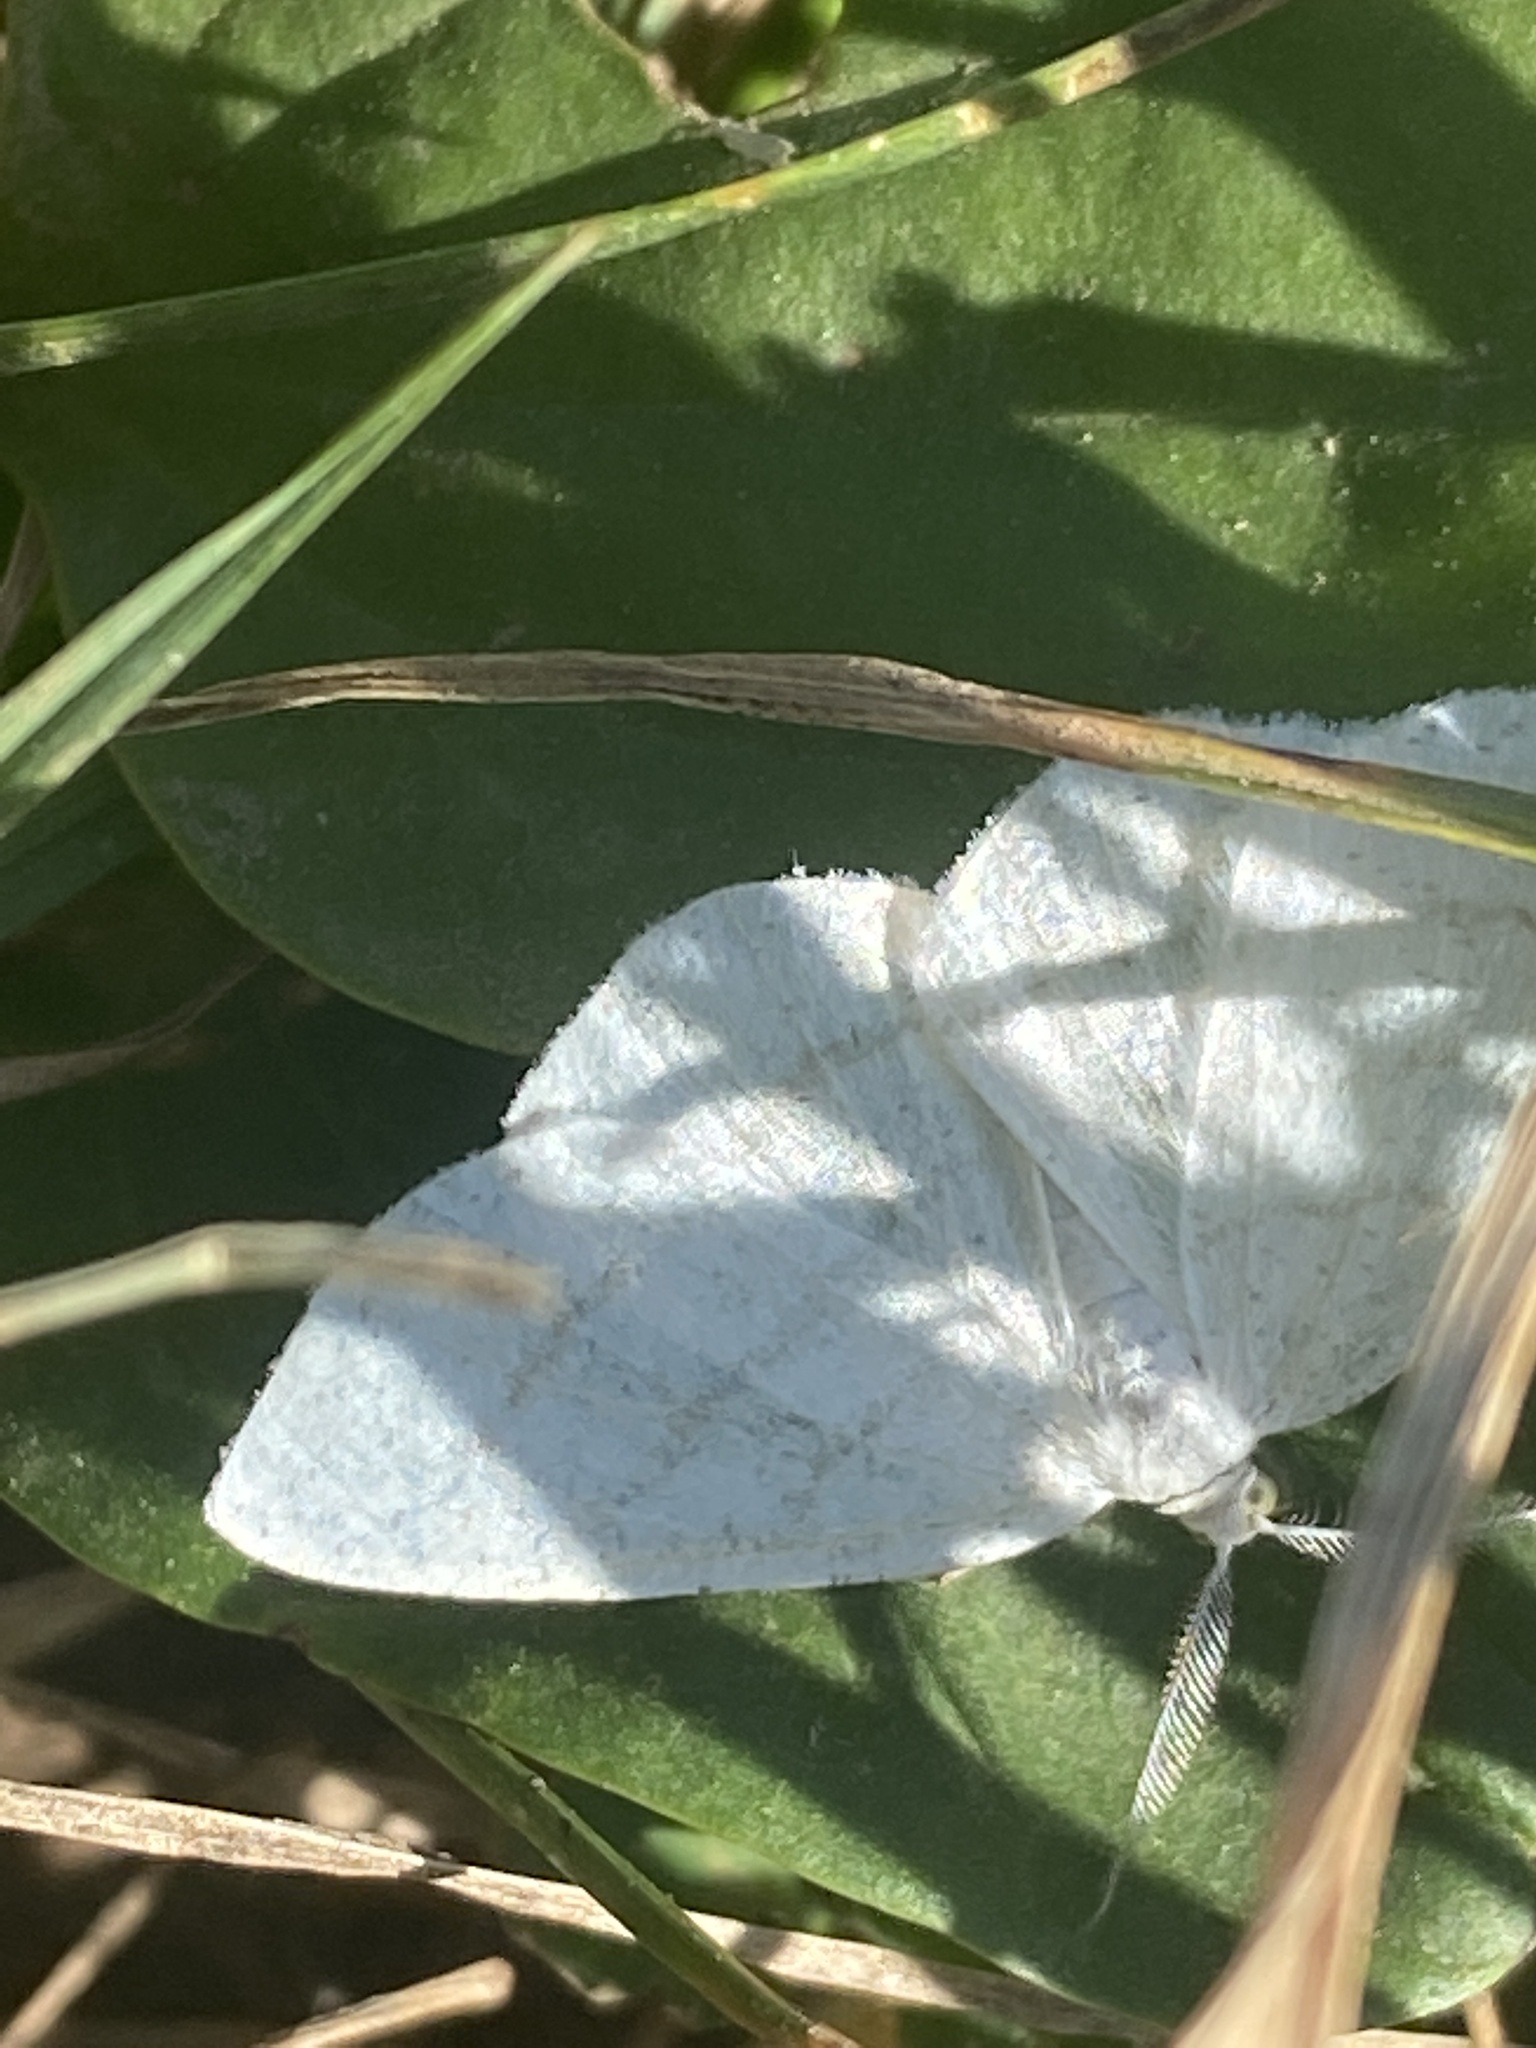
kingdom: Animalia
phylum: Arthropoda
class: Insecta
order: Lepidoptera
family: Geometridae
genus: Cabera
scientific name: Cabera pusaria
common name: Common white wave
